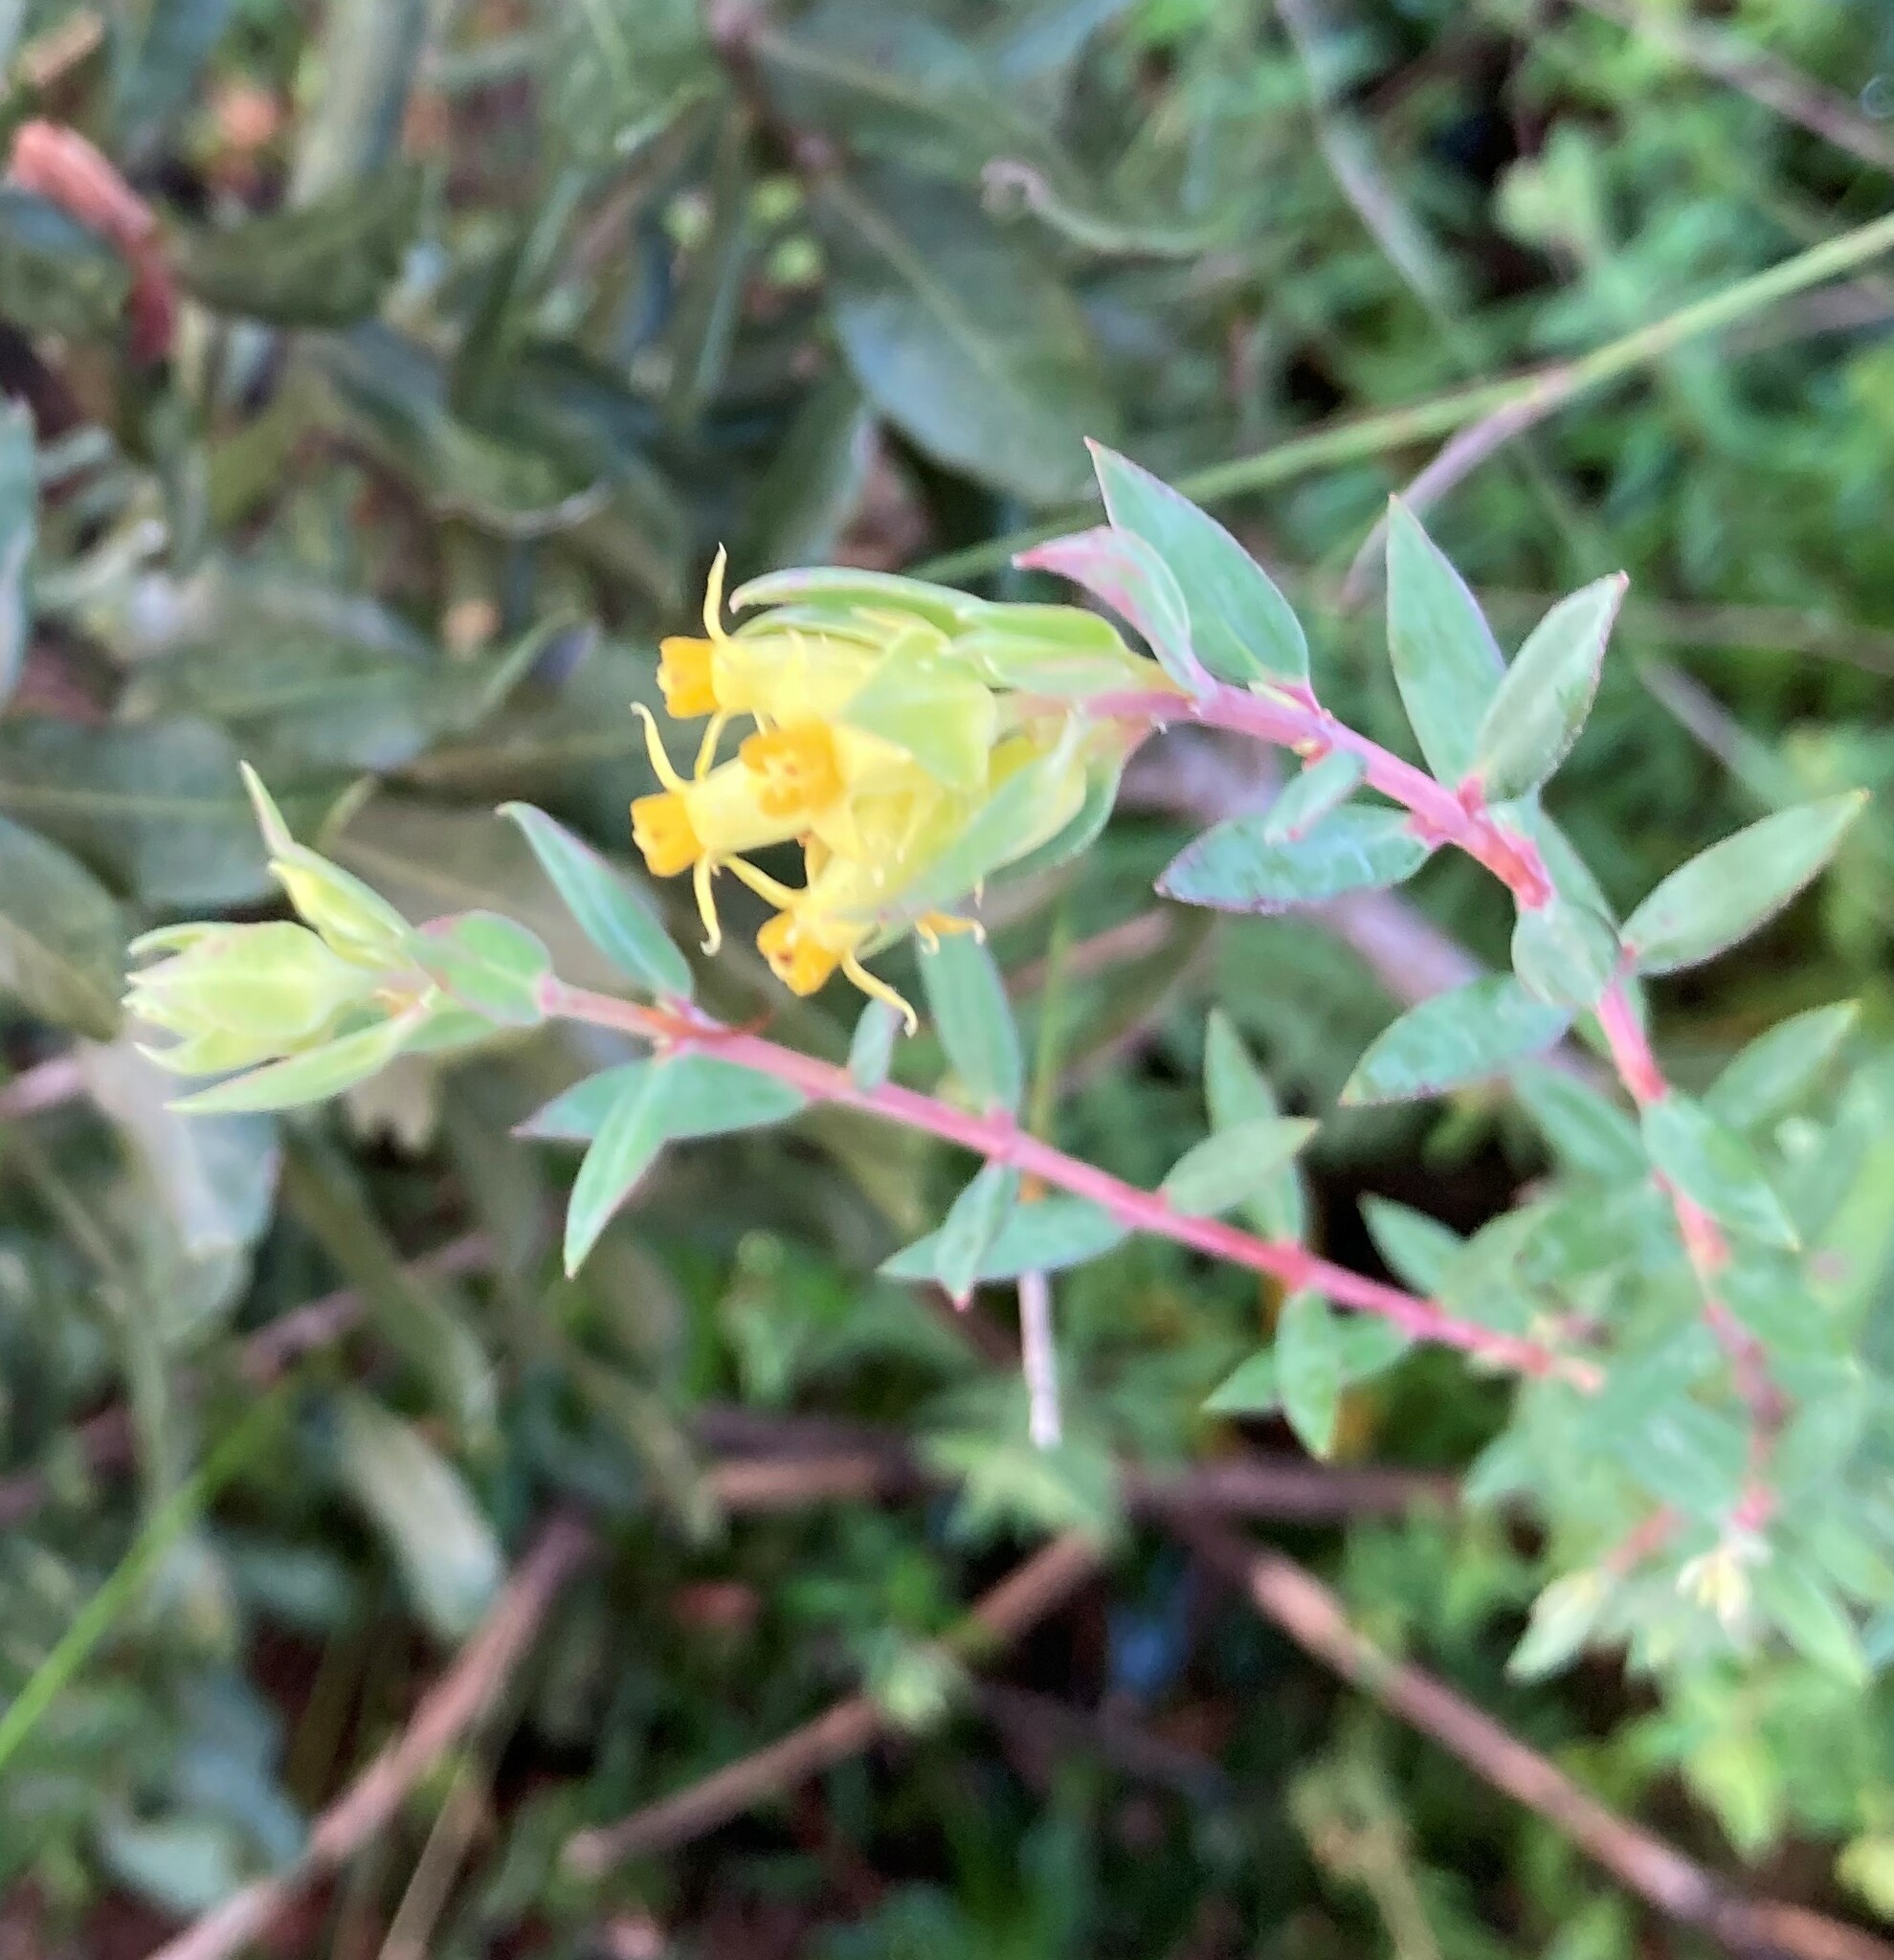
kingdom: Plantae
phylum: Tracheophyta
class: Magnoliopsida
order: Myrtales
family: Penaeaceae
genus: Penaea
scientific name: Penaea acutifolia
